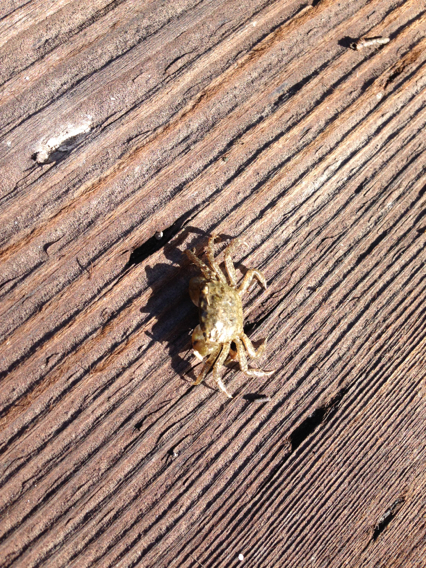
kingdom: Animalia
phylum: Arthropoda
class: Malacostraca
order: Decapoda
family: Varunidae
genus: Hemigrapsus
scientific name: Hemigrapsus oregonensis
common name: Yellow shore crab
